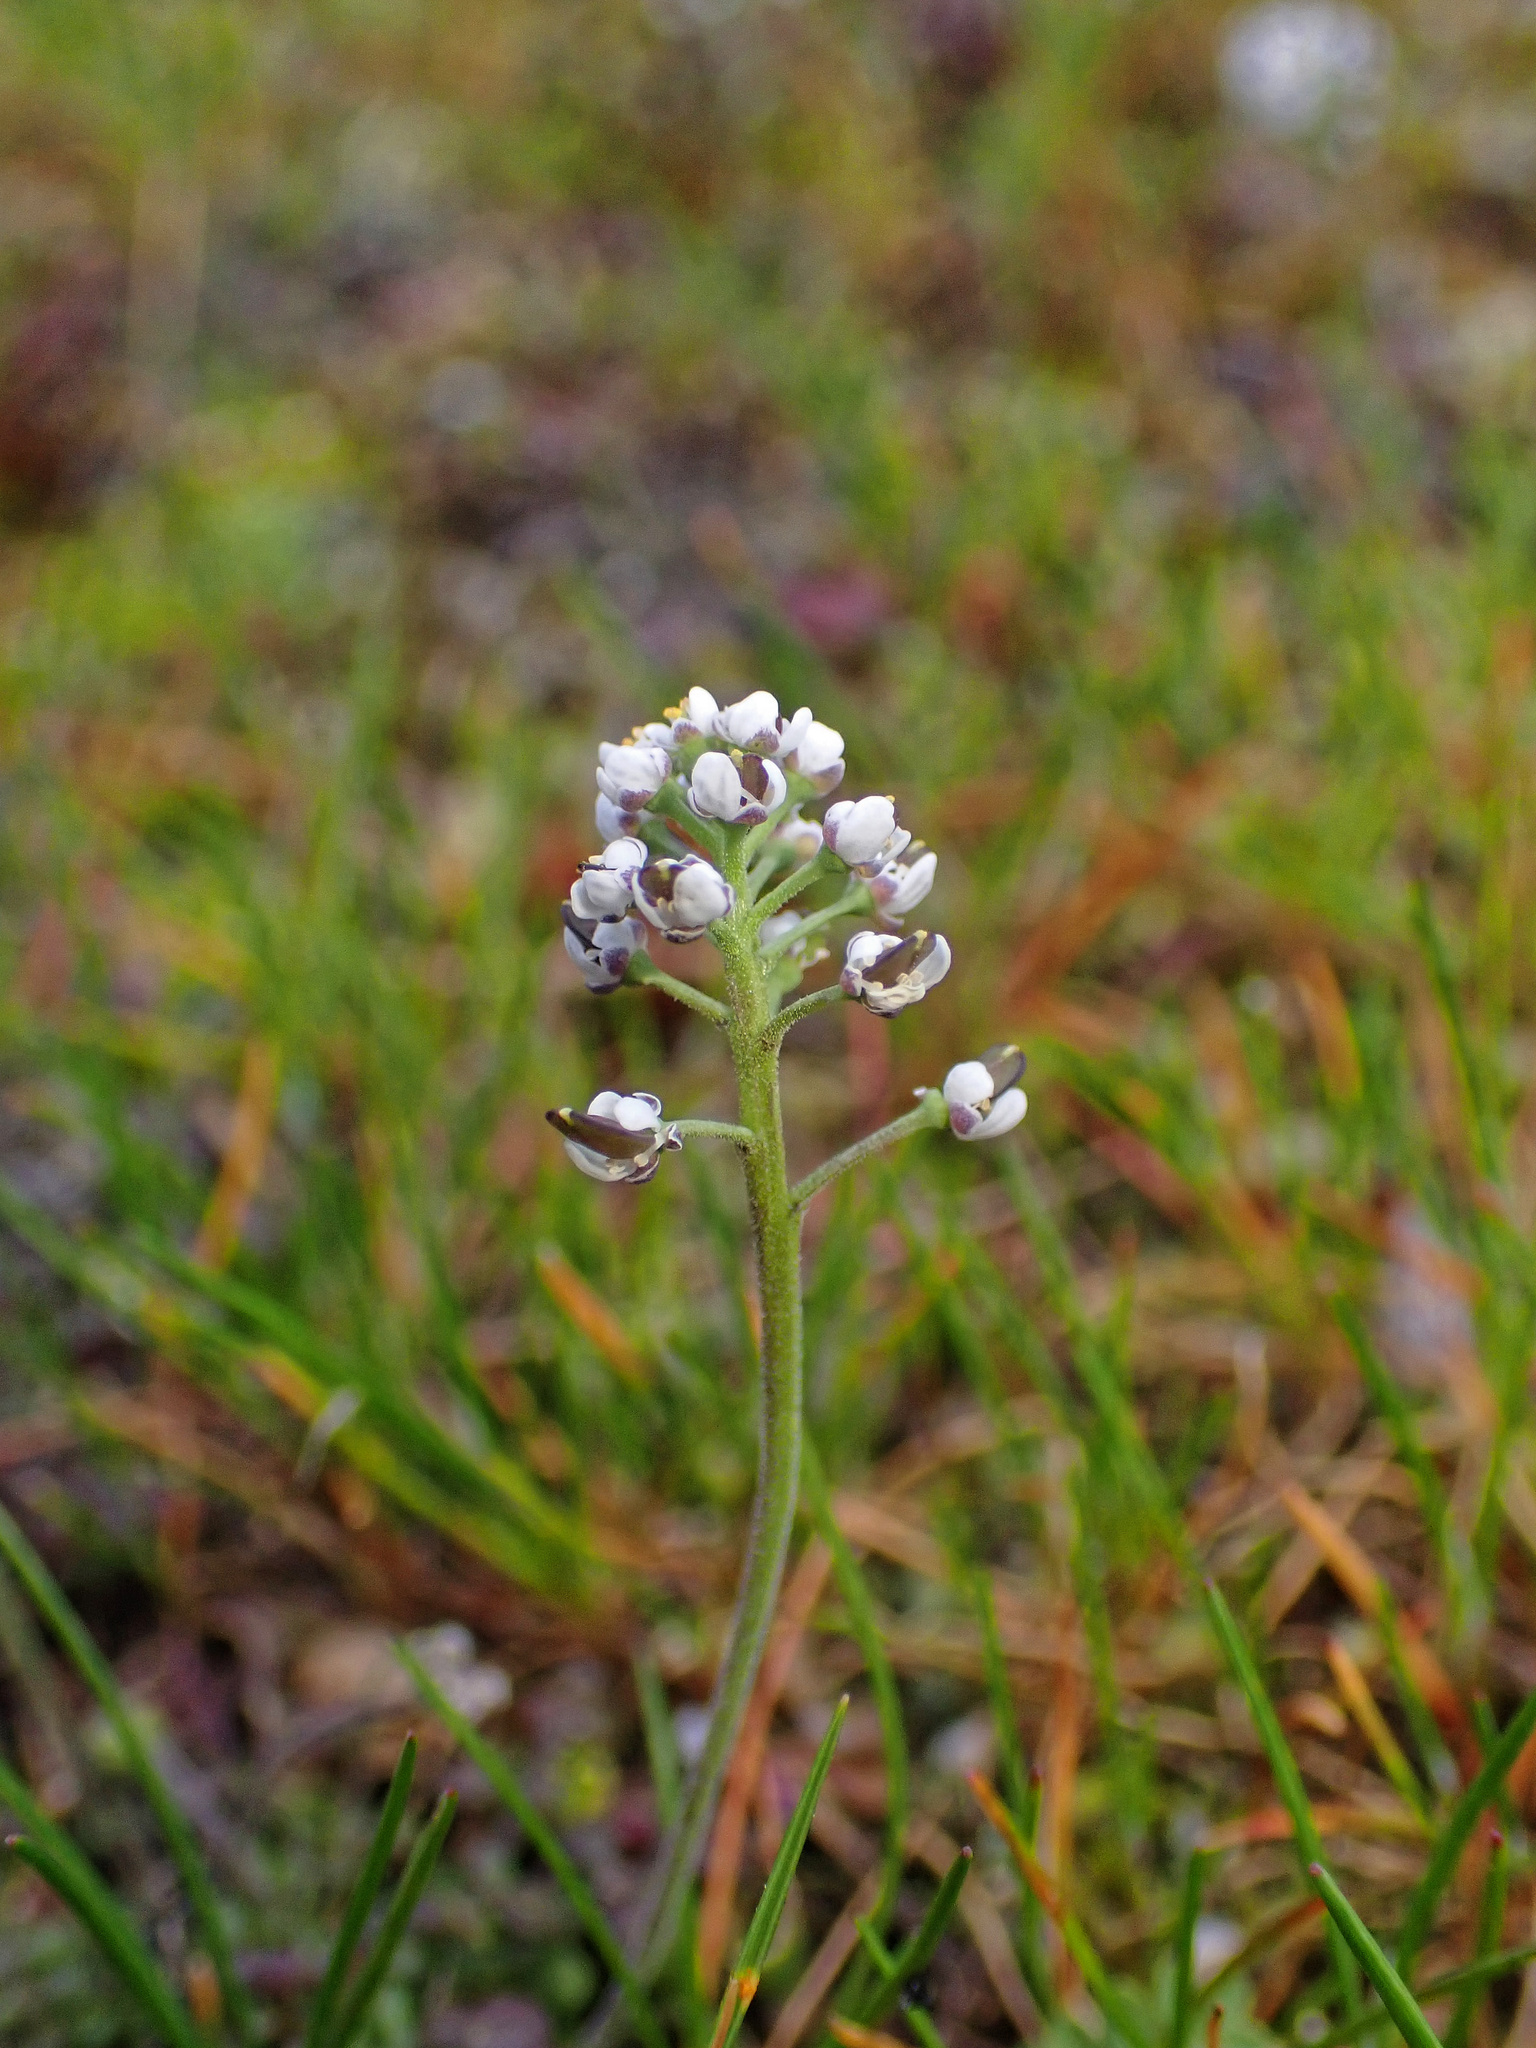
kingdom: Plantae
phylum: Tracheophyta
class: Magnoliopsida
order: Brassicales
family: Brassicaceae
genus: Teesdalia
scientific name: Teesdalia nudicaulis
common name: Shepherd's cress
